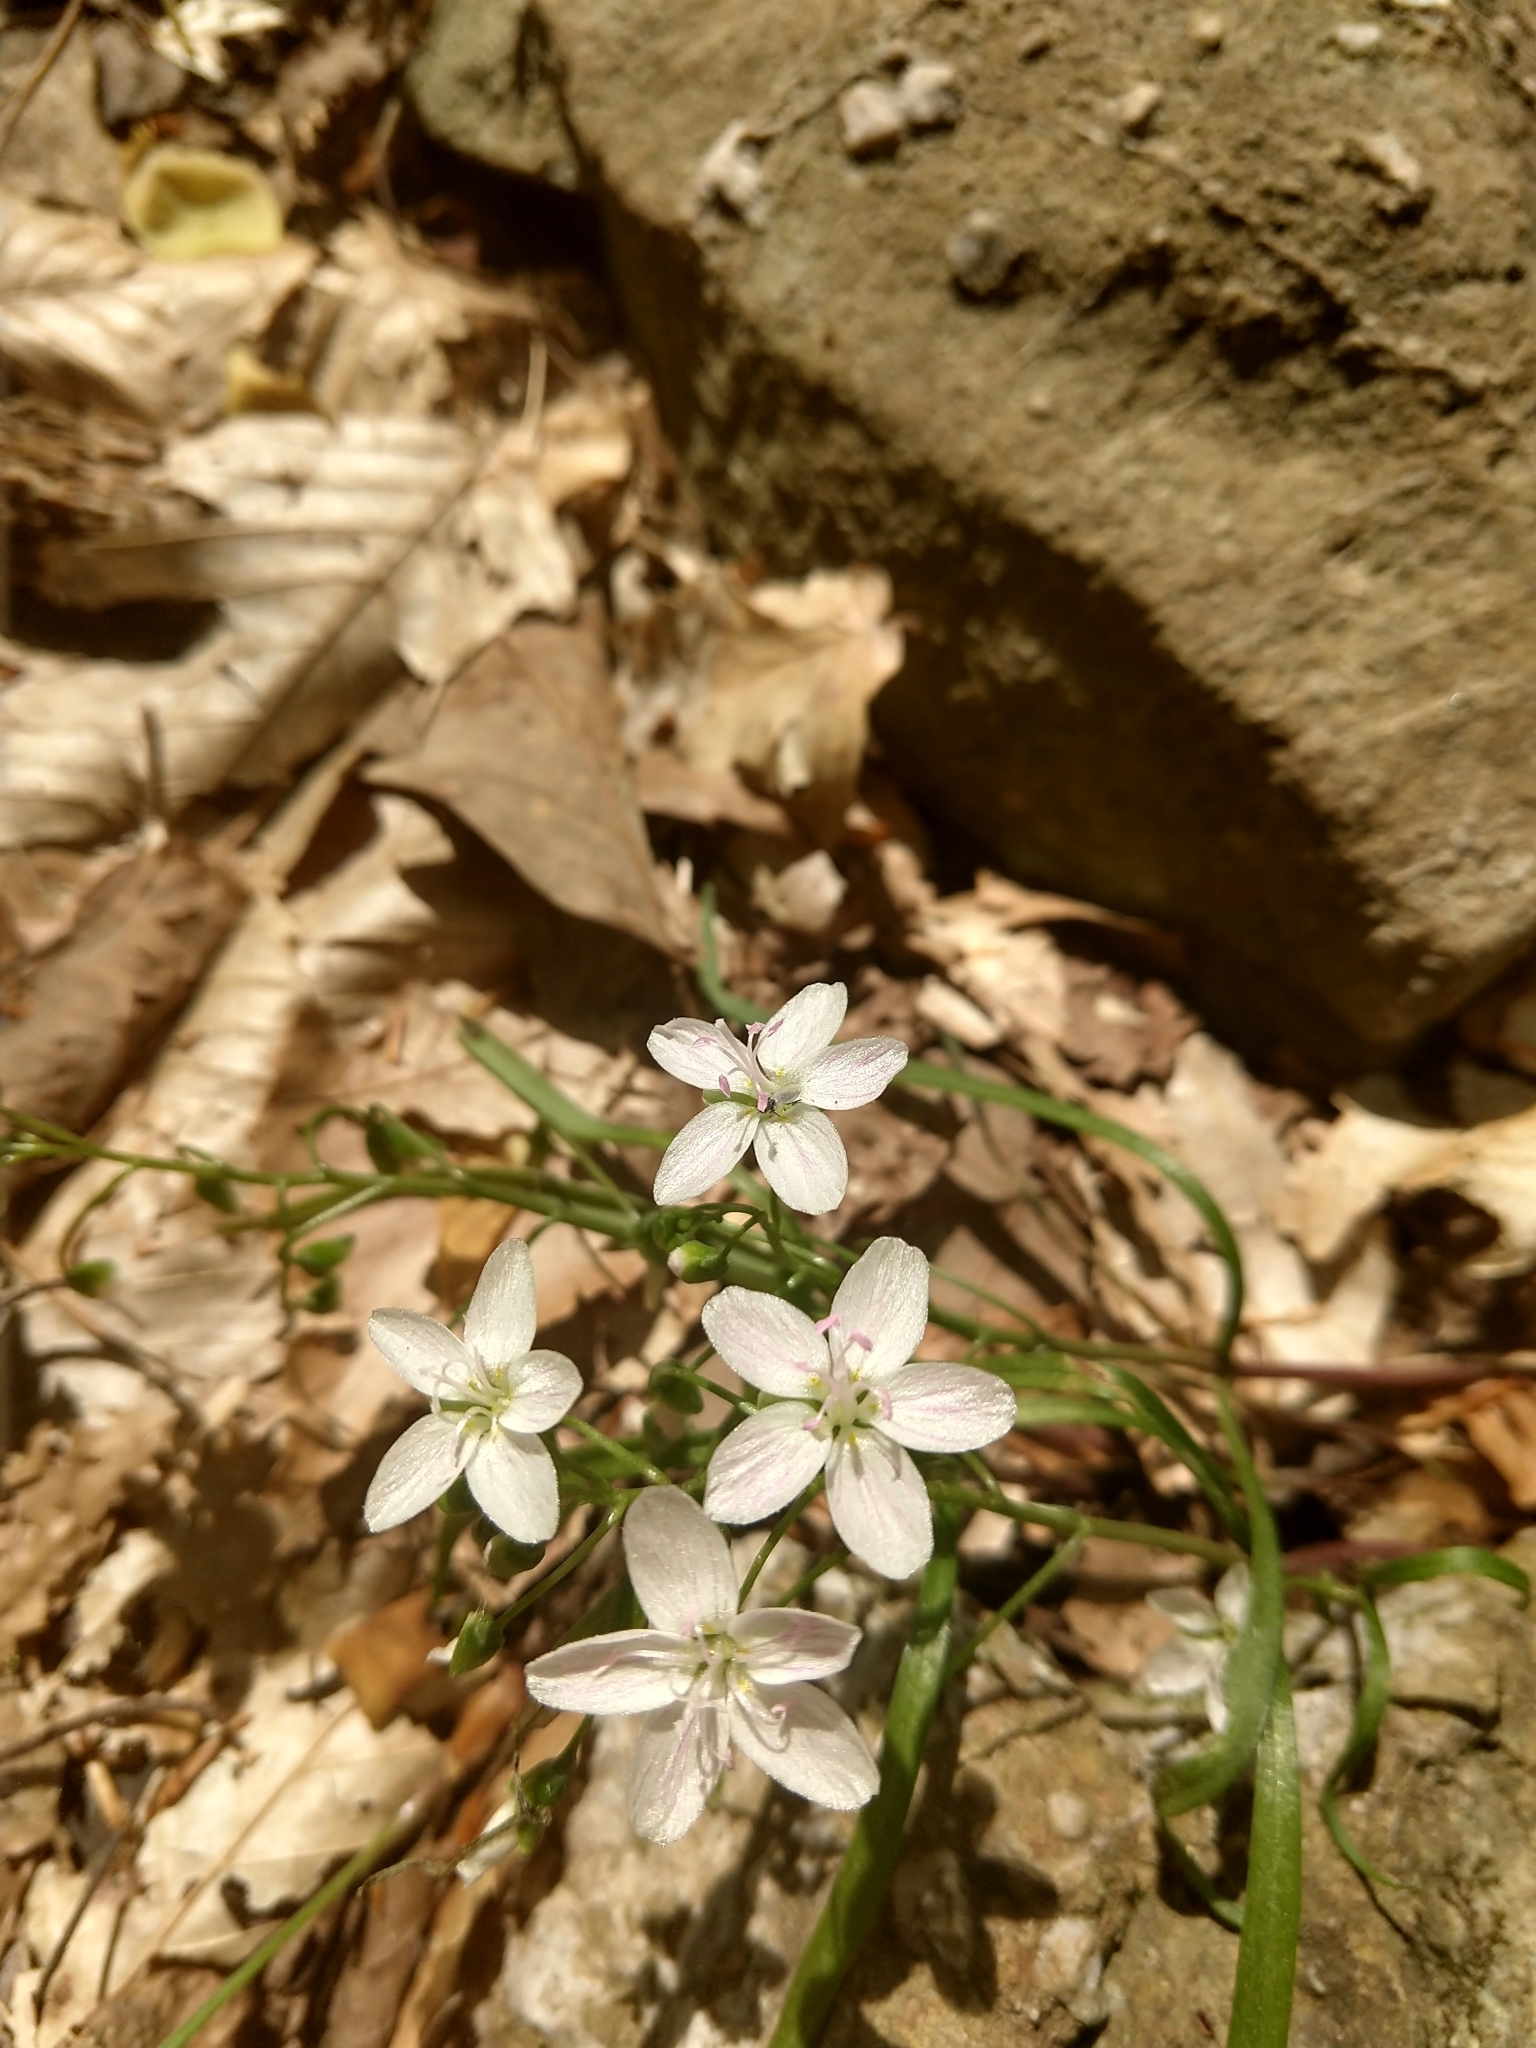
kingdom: Plantae
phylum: Tracheophyta
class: Magnoliopsida
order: Caryophyllales
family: Montiaceae
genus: Claytonia
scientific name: Claytonia virginica
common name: Virginia springbeauty
